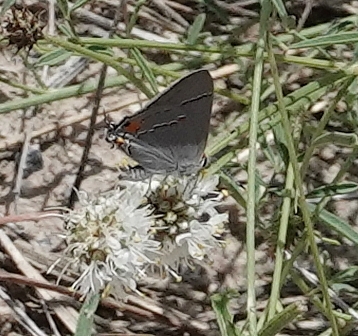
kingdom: Animalia
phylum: Arthropoda
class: Insecta
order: Lepidoptera
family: Lycaenidae
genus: Strymon
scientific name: Strymon melinus
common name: Gray hairstreak
